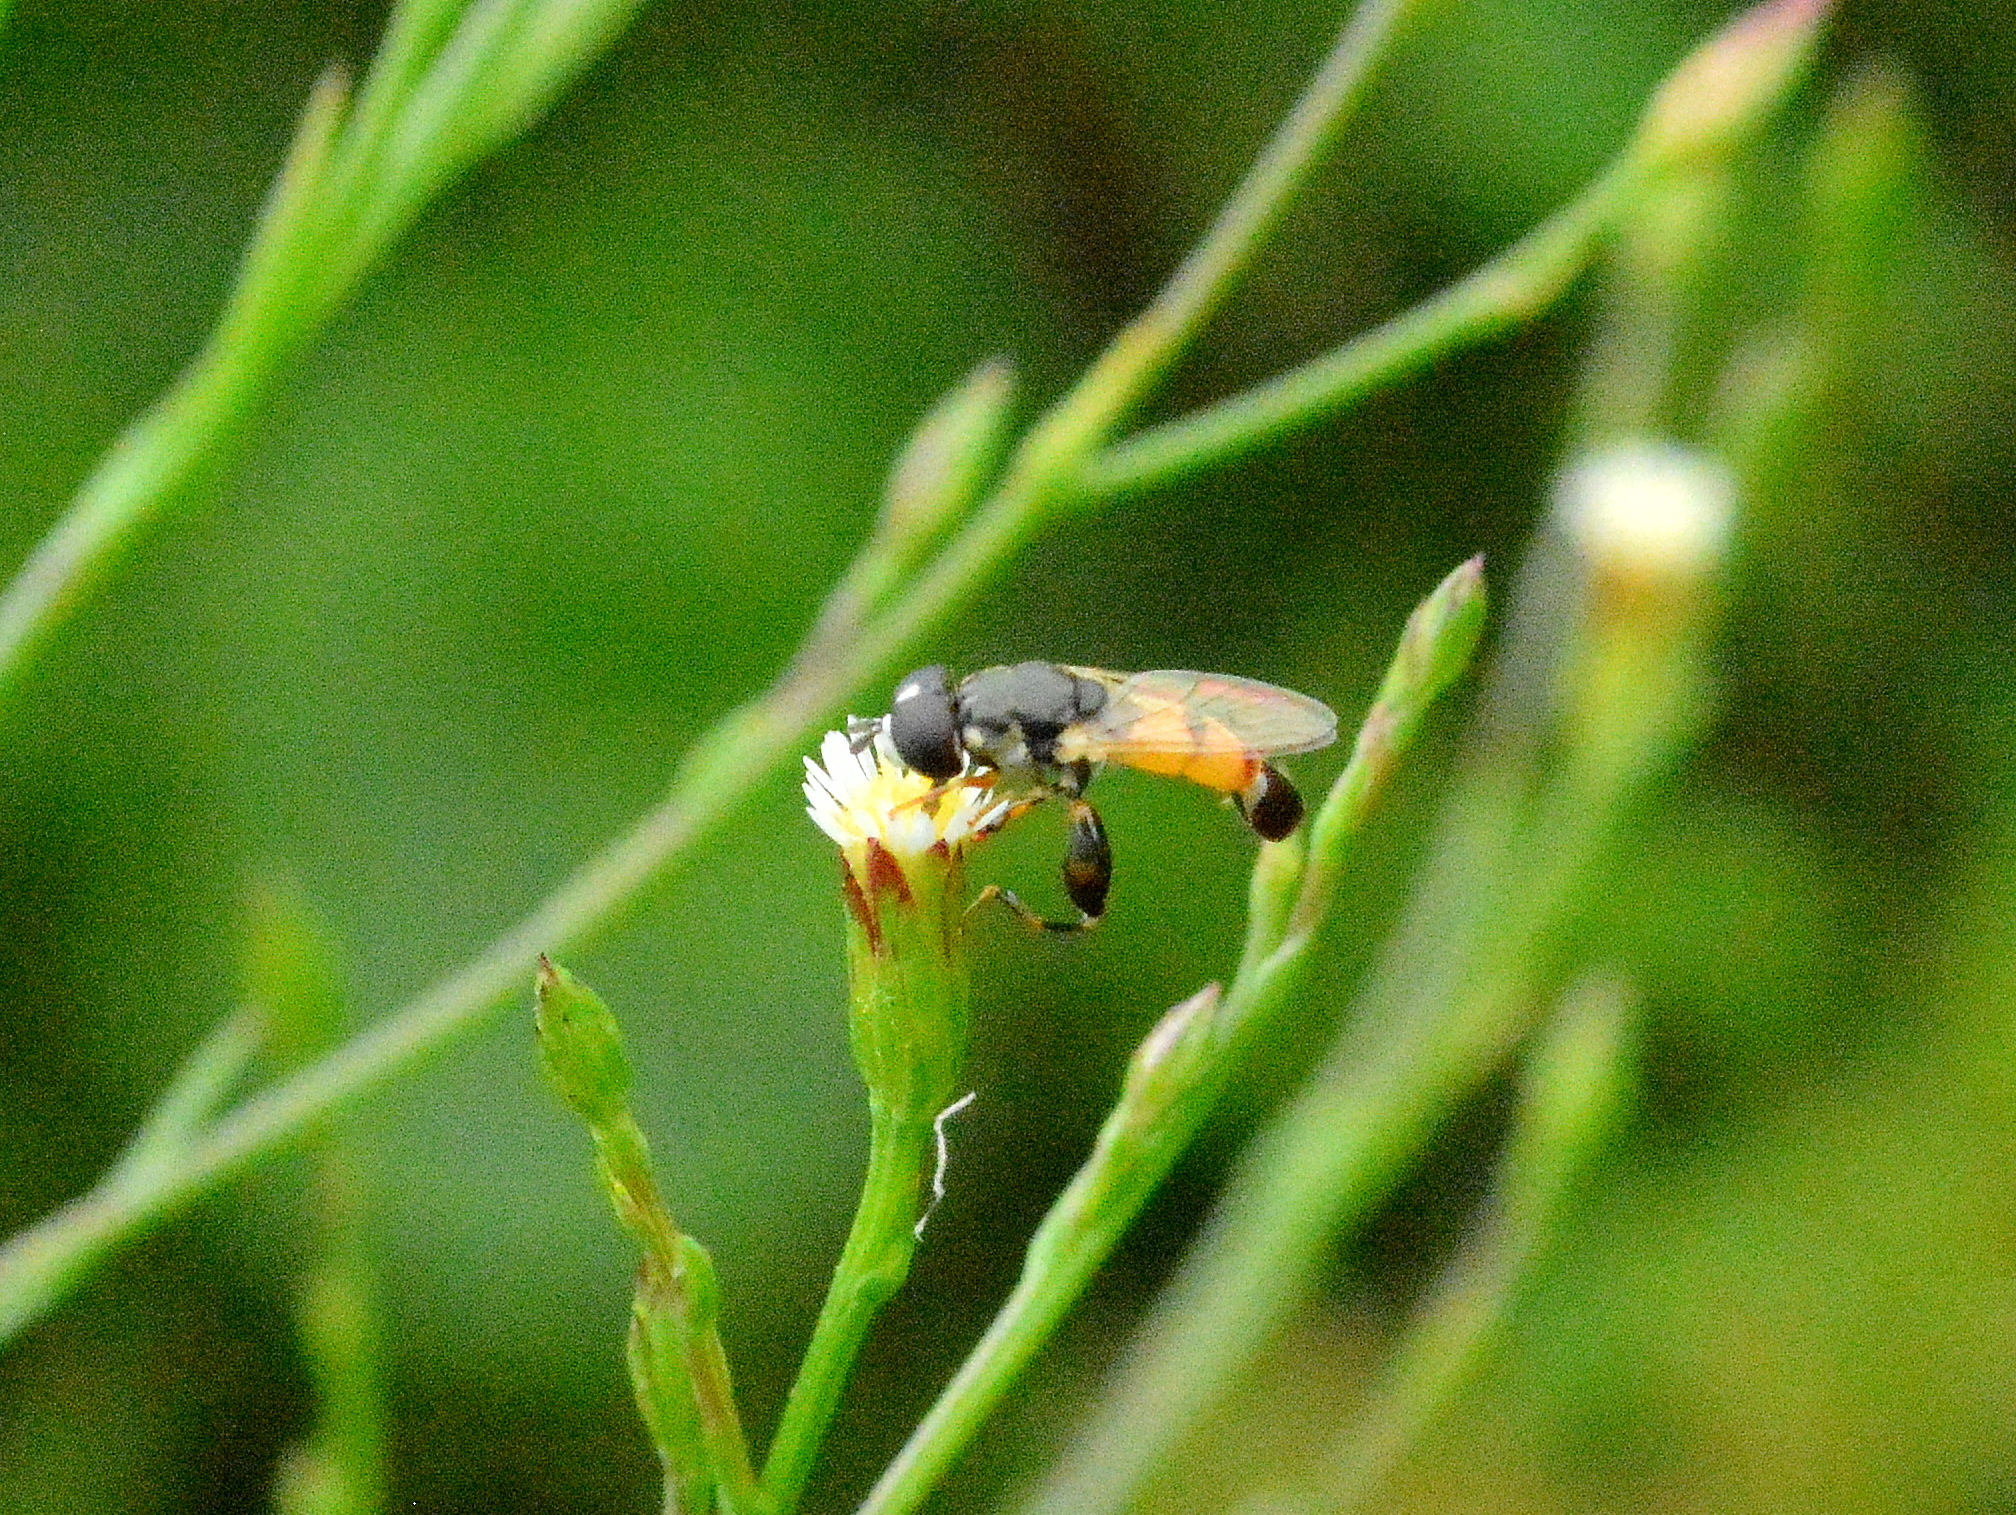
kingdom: Animalia
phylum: Arthropoda
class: Insecta
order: Diptera
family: Syrphidae
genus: Syritta
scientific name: Syritta flaviventris
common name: Syrphid fly
